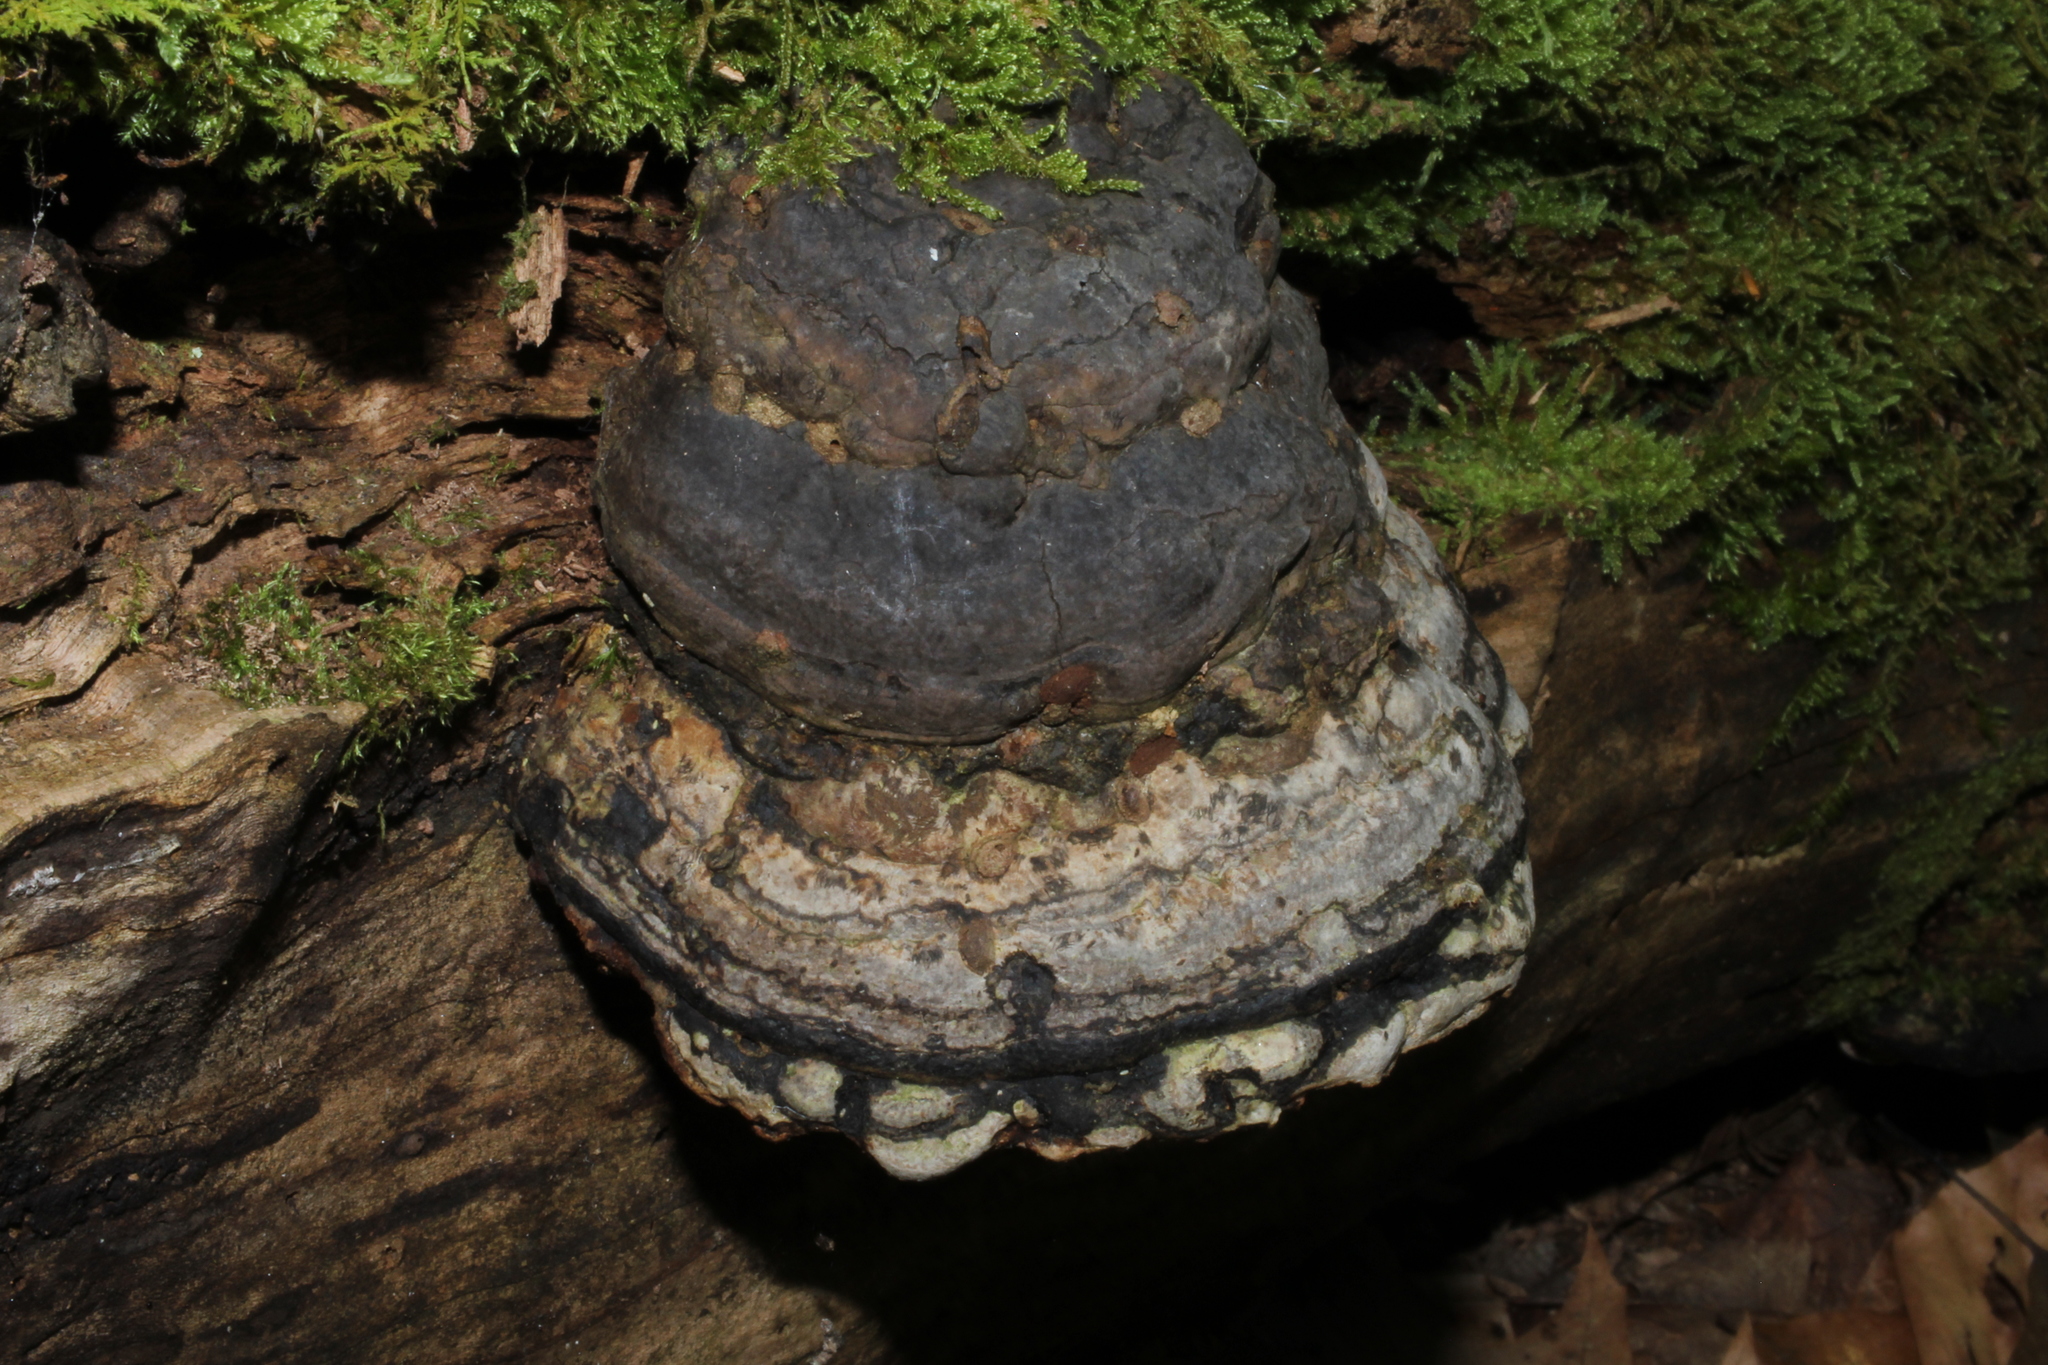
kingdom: Fungi
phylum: Basidiomycota
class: Agaricomycetes
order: Polyporales
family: Polyporaceae
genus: Fomes
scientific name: Fomes fomentarius
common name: Hoof fungus
